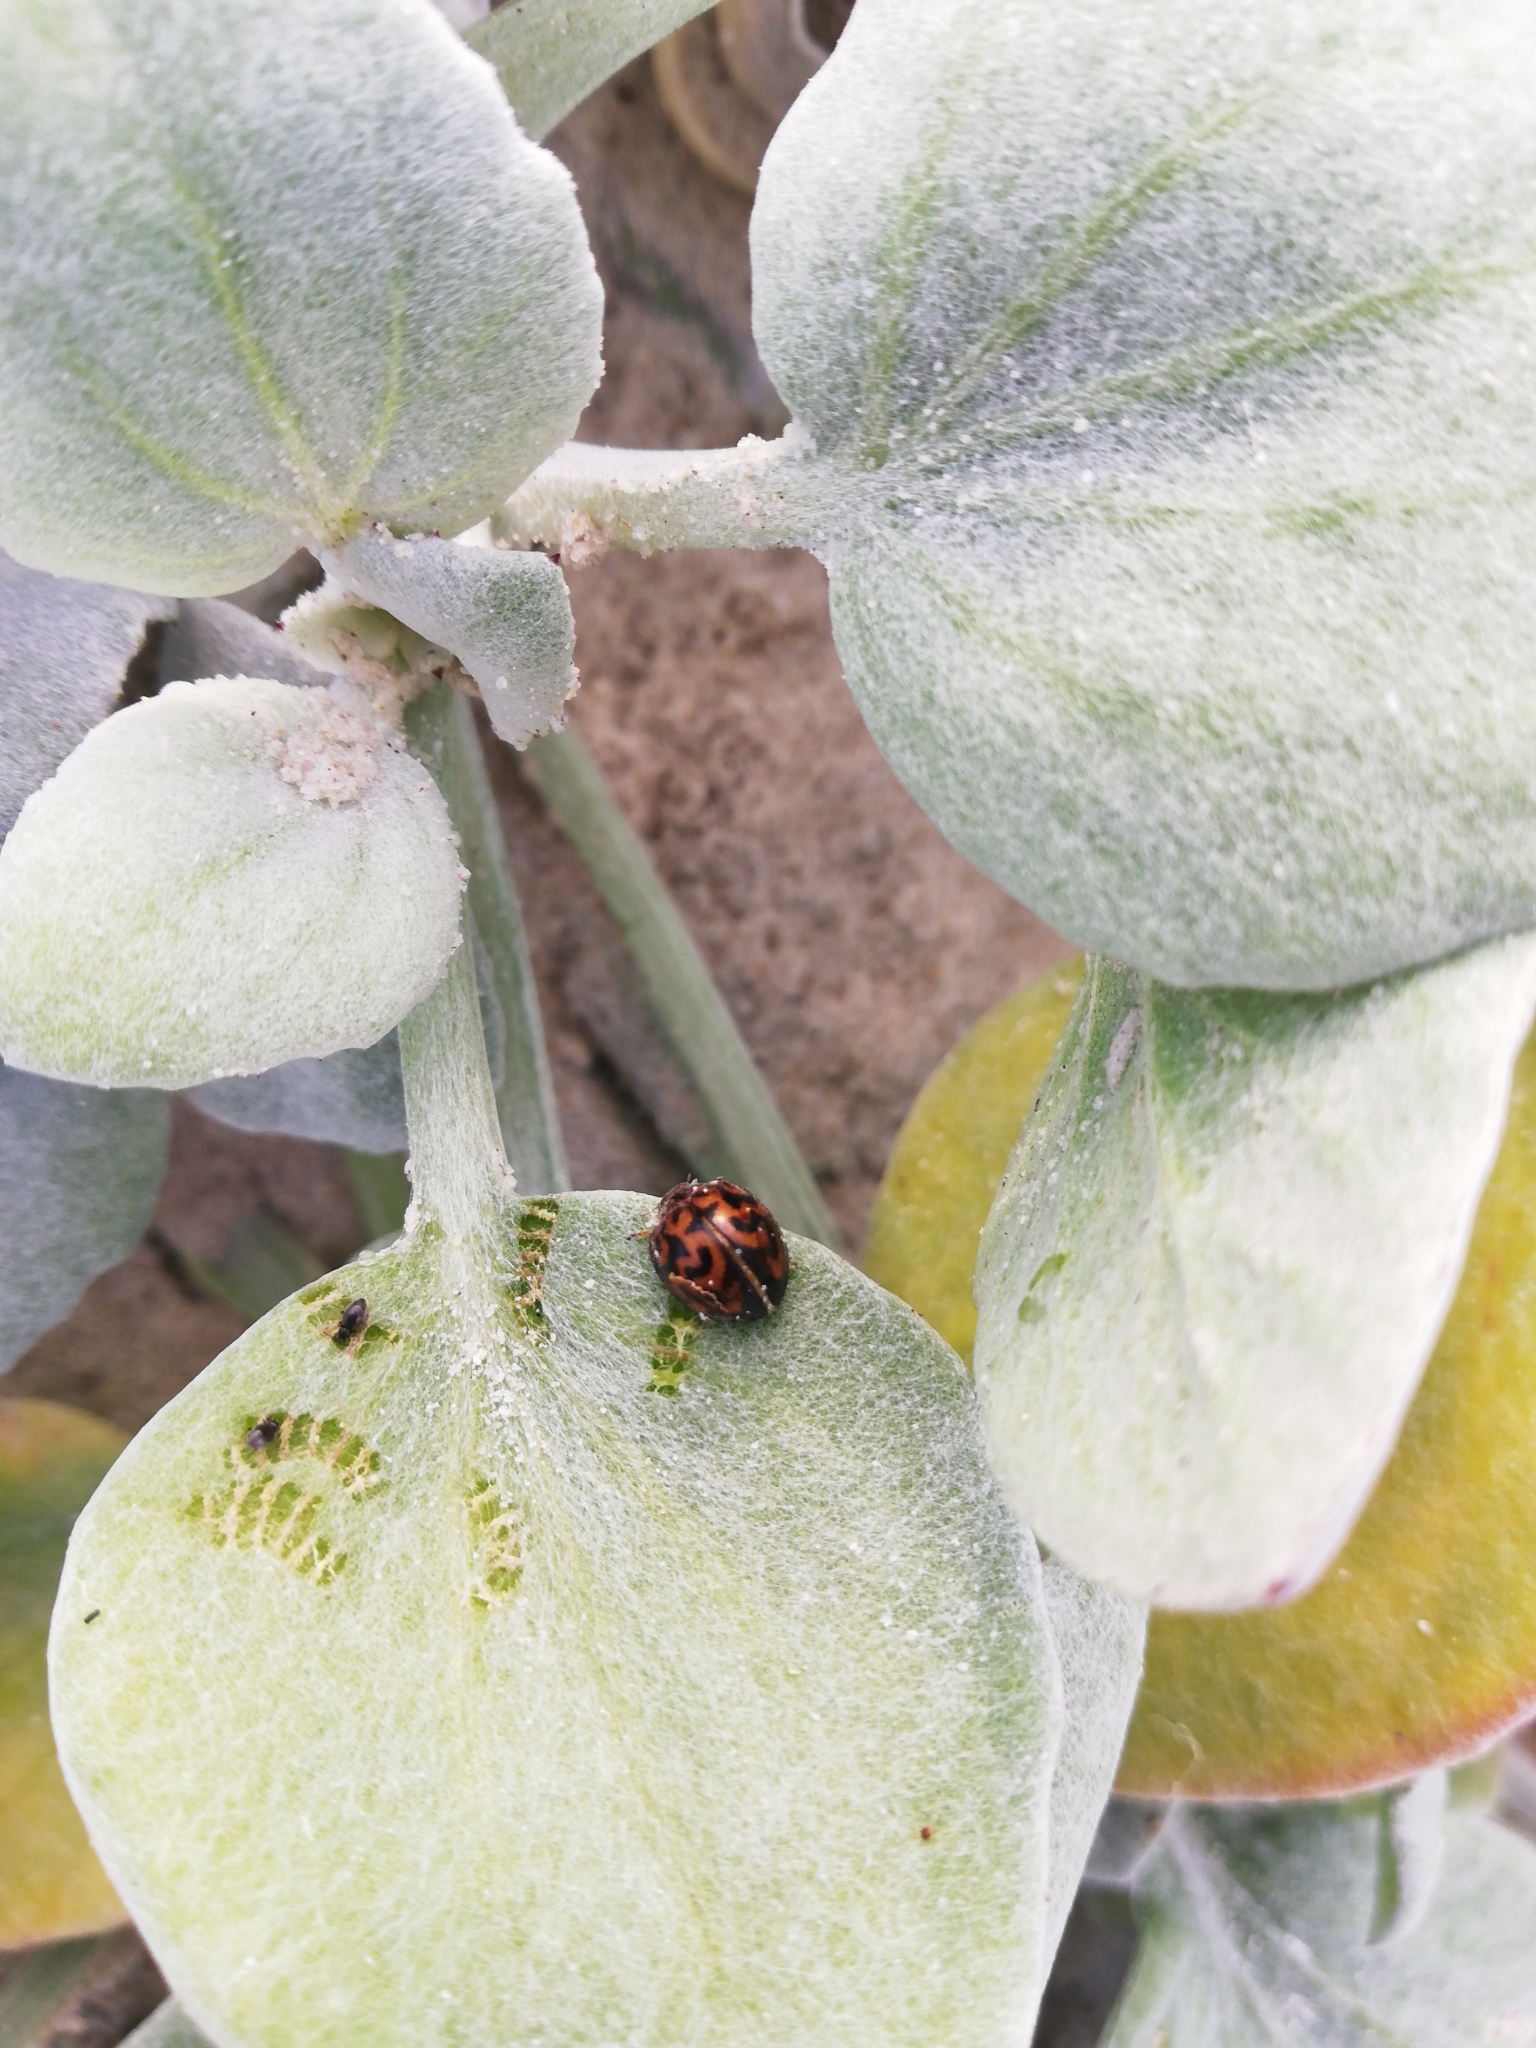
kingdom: Animalia
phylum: Arthropoda
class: Insecta
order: Lepidoptera
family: Geometridae
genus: Afrocleta
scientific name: Afrocleta
